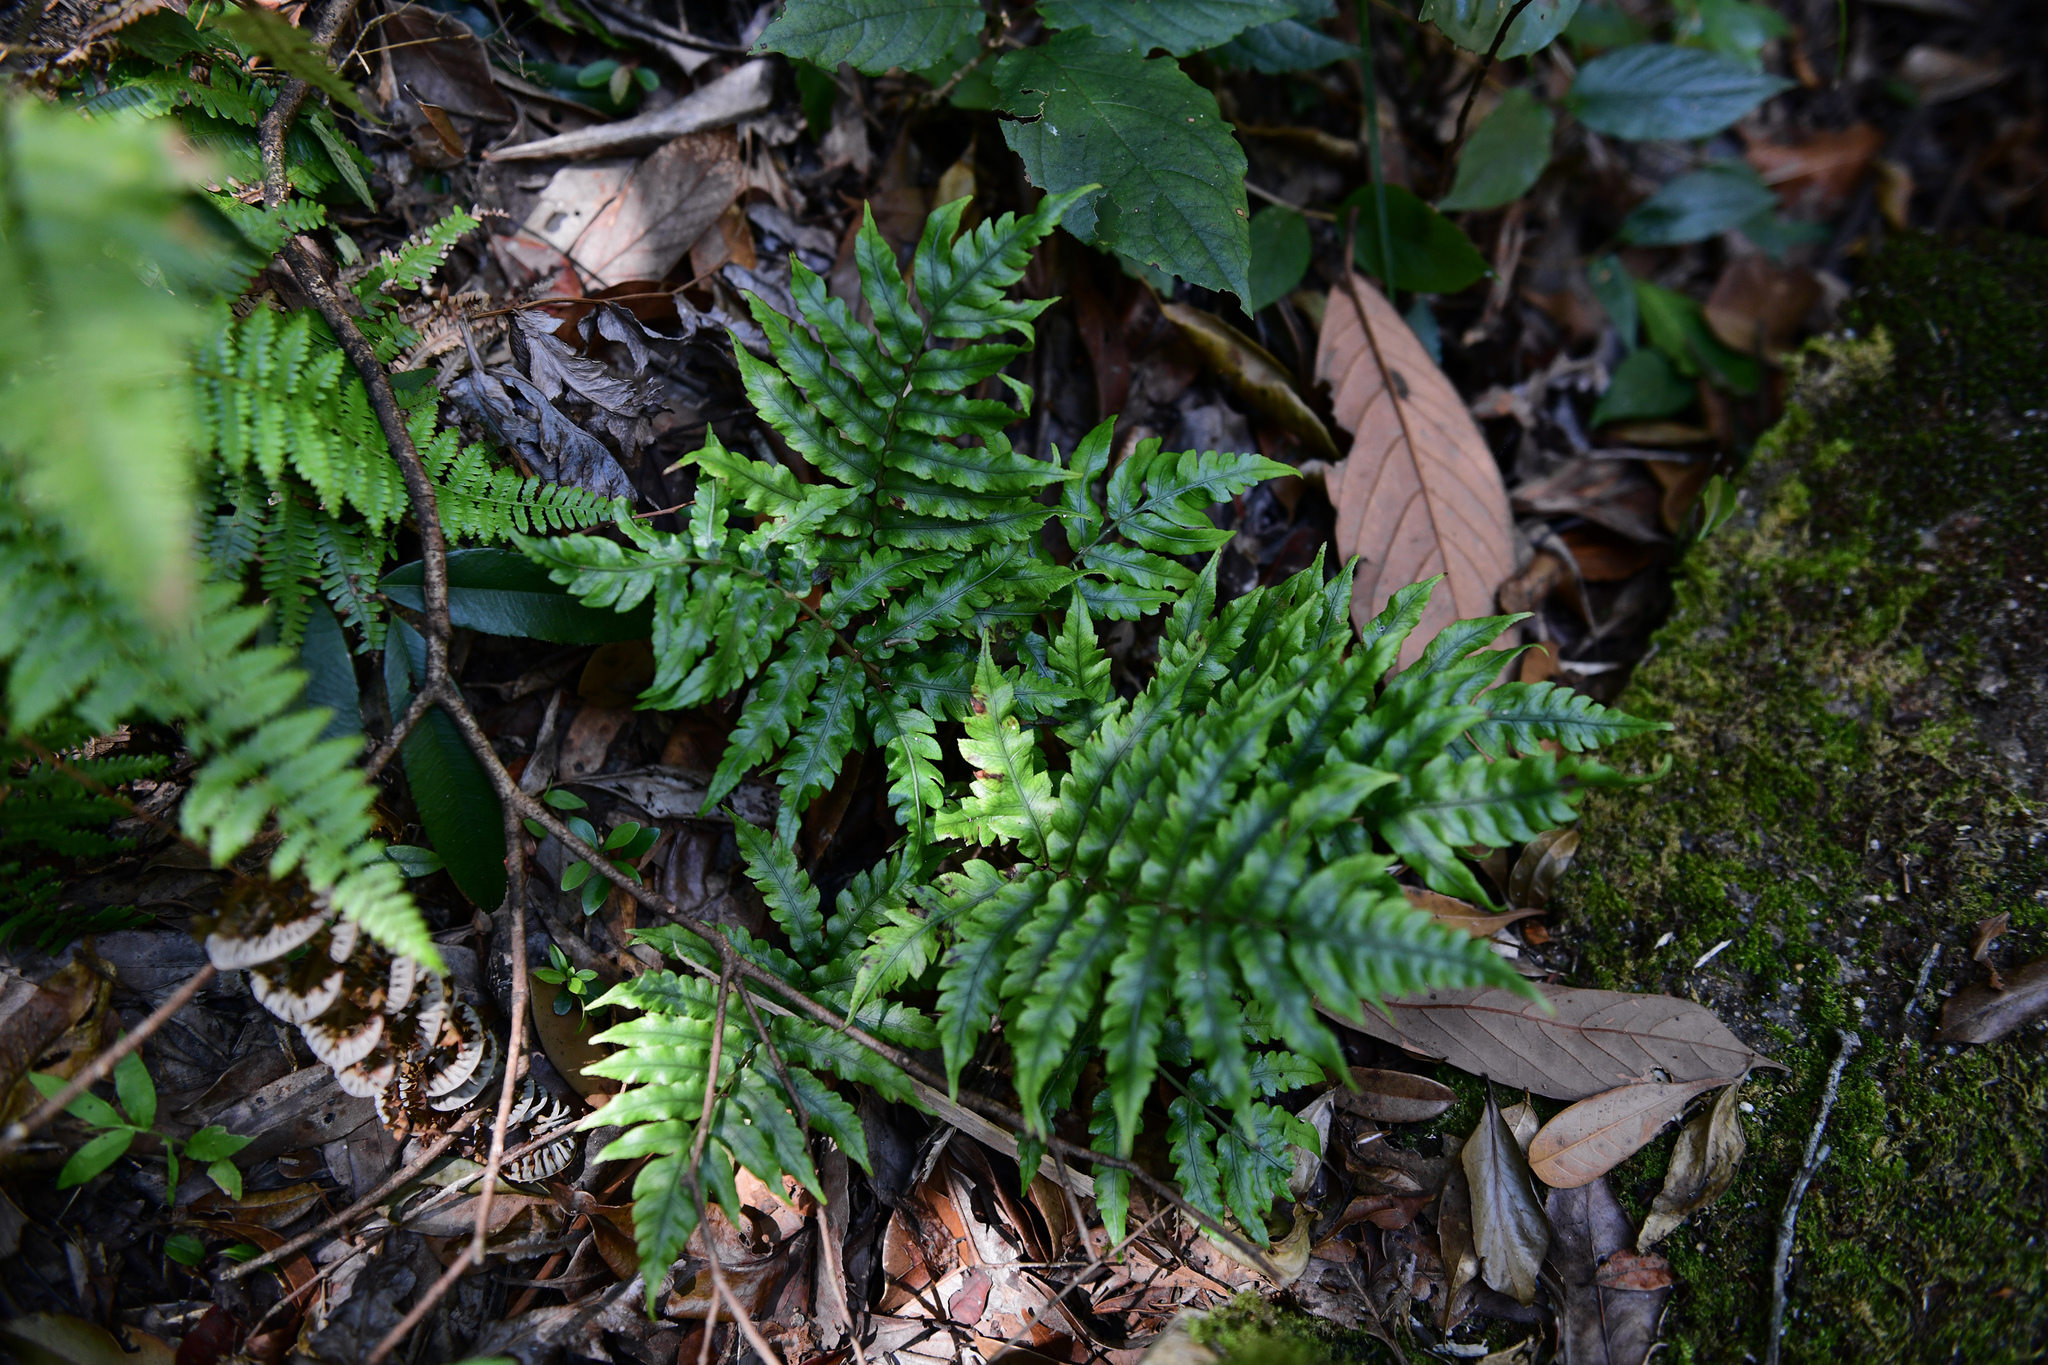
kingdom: Plantae
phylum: Tracheophyta
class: Polypodiopsida
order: Polypodiales
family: Blechnaceae
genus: Woodwardia
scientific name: Woodwardia japonica
